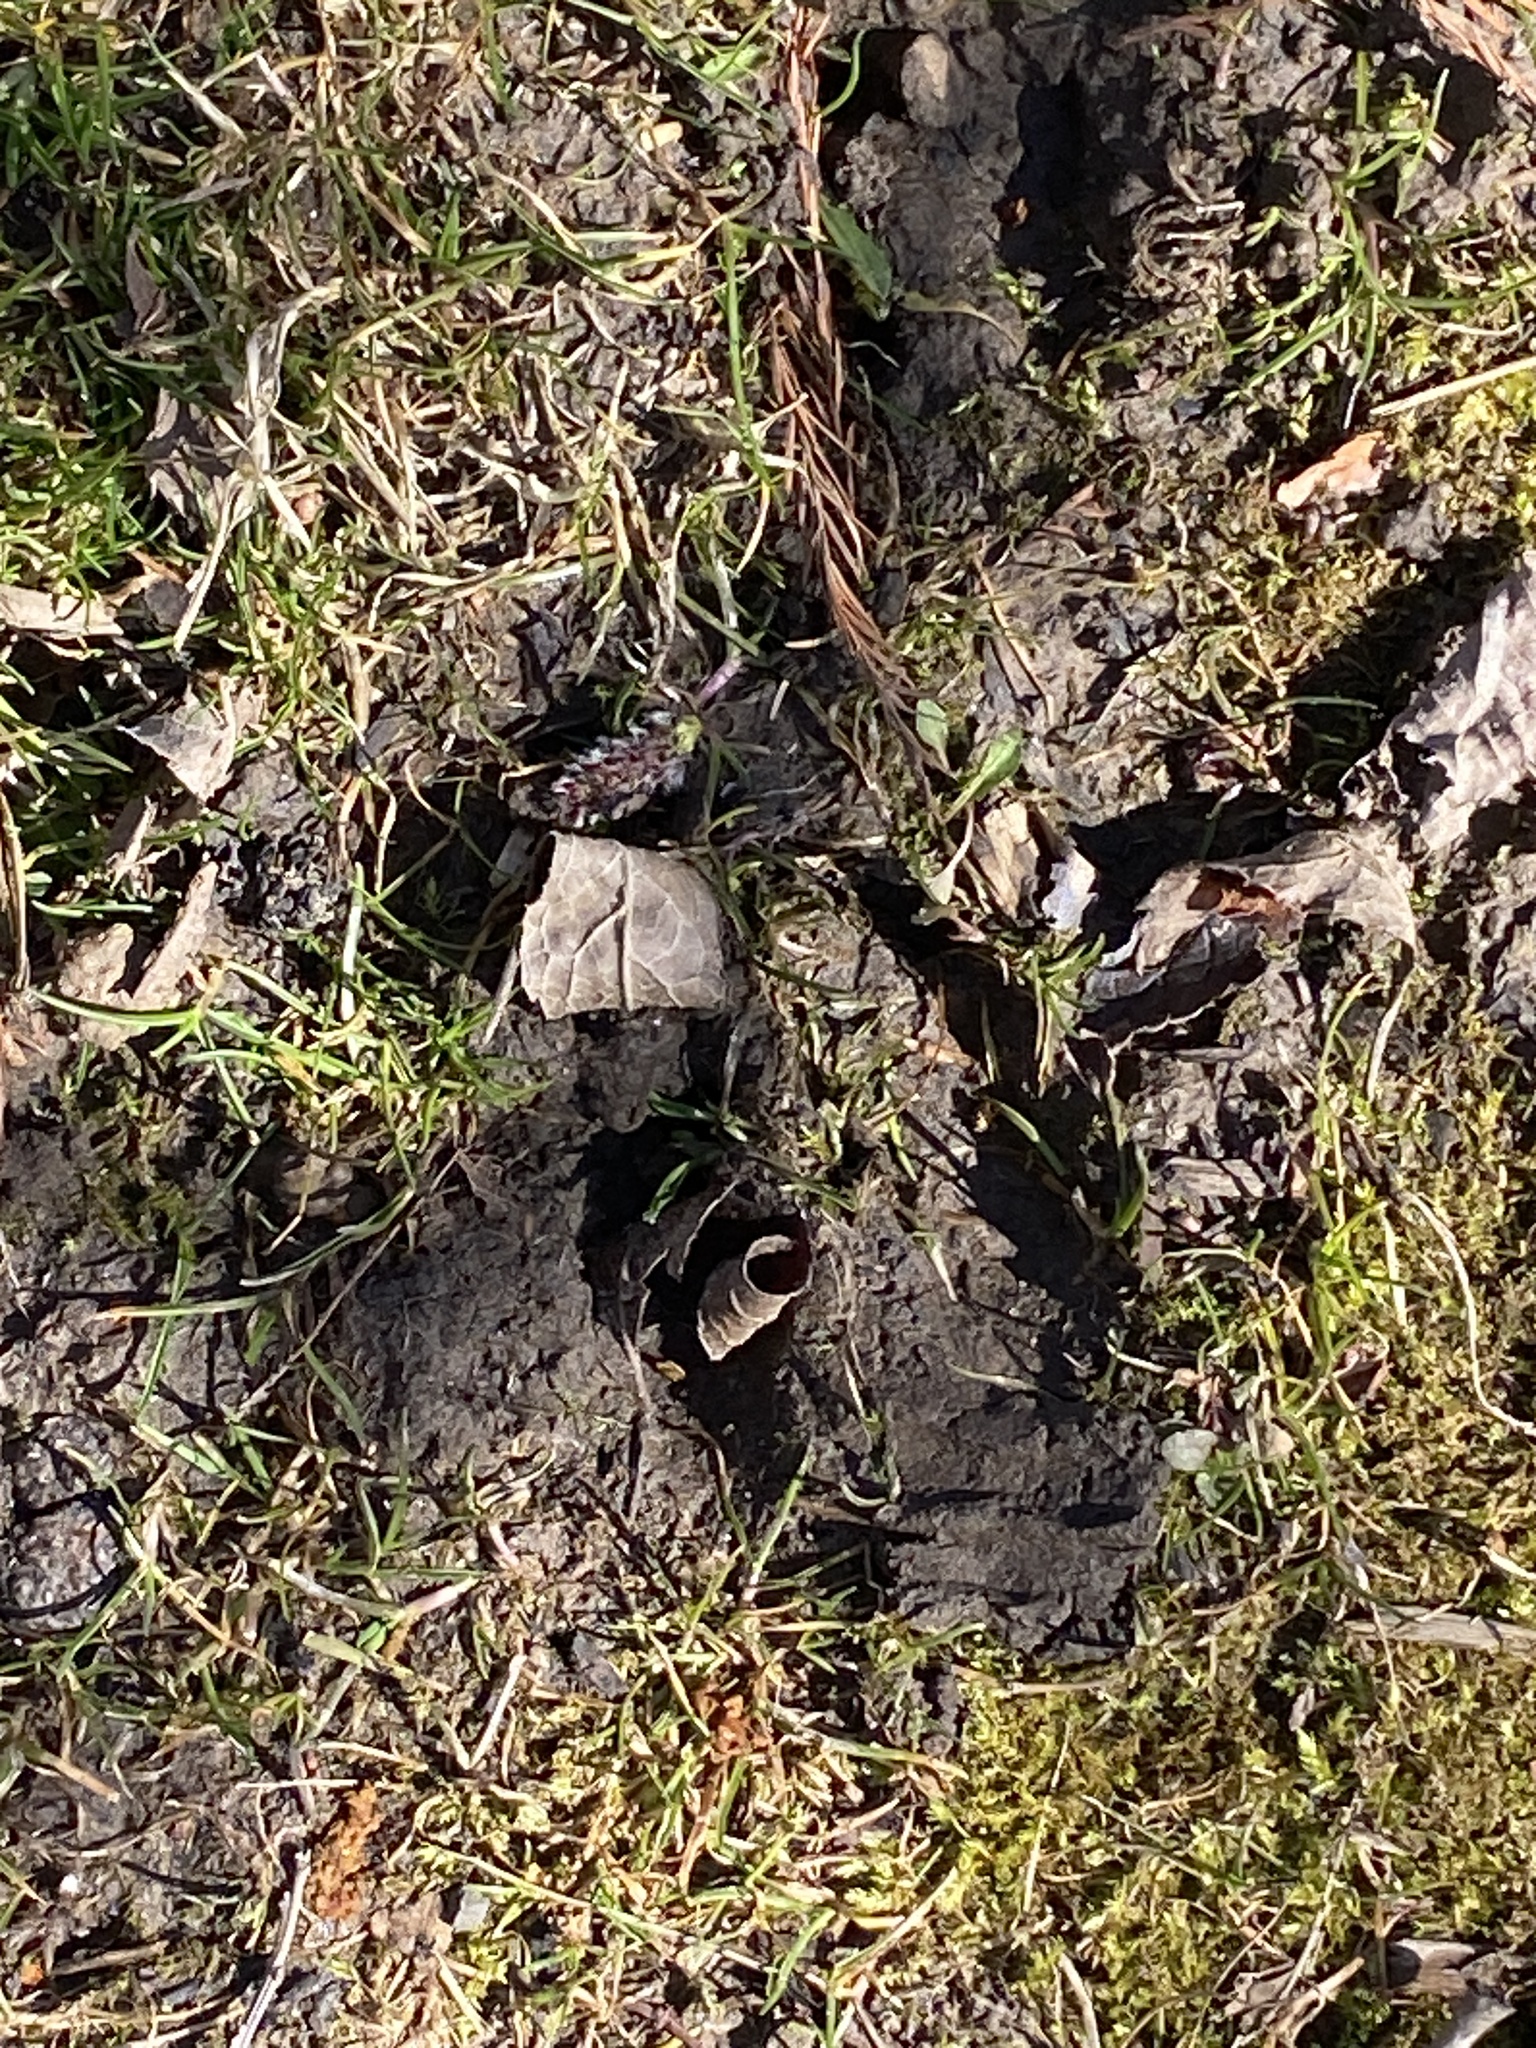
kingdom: Animalia
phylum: Chordata
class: Mammalia
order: Artiodactyla
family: Cervidae
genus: Odocoileus
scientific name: Odocoileus virginianus
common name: White-tailed deer
